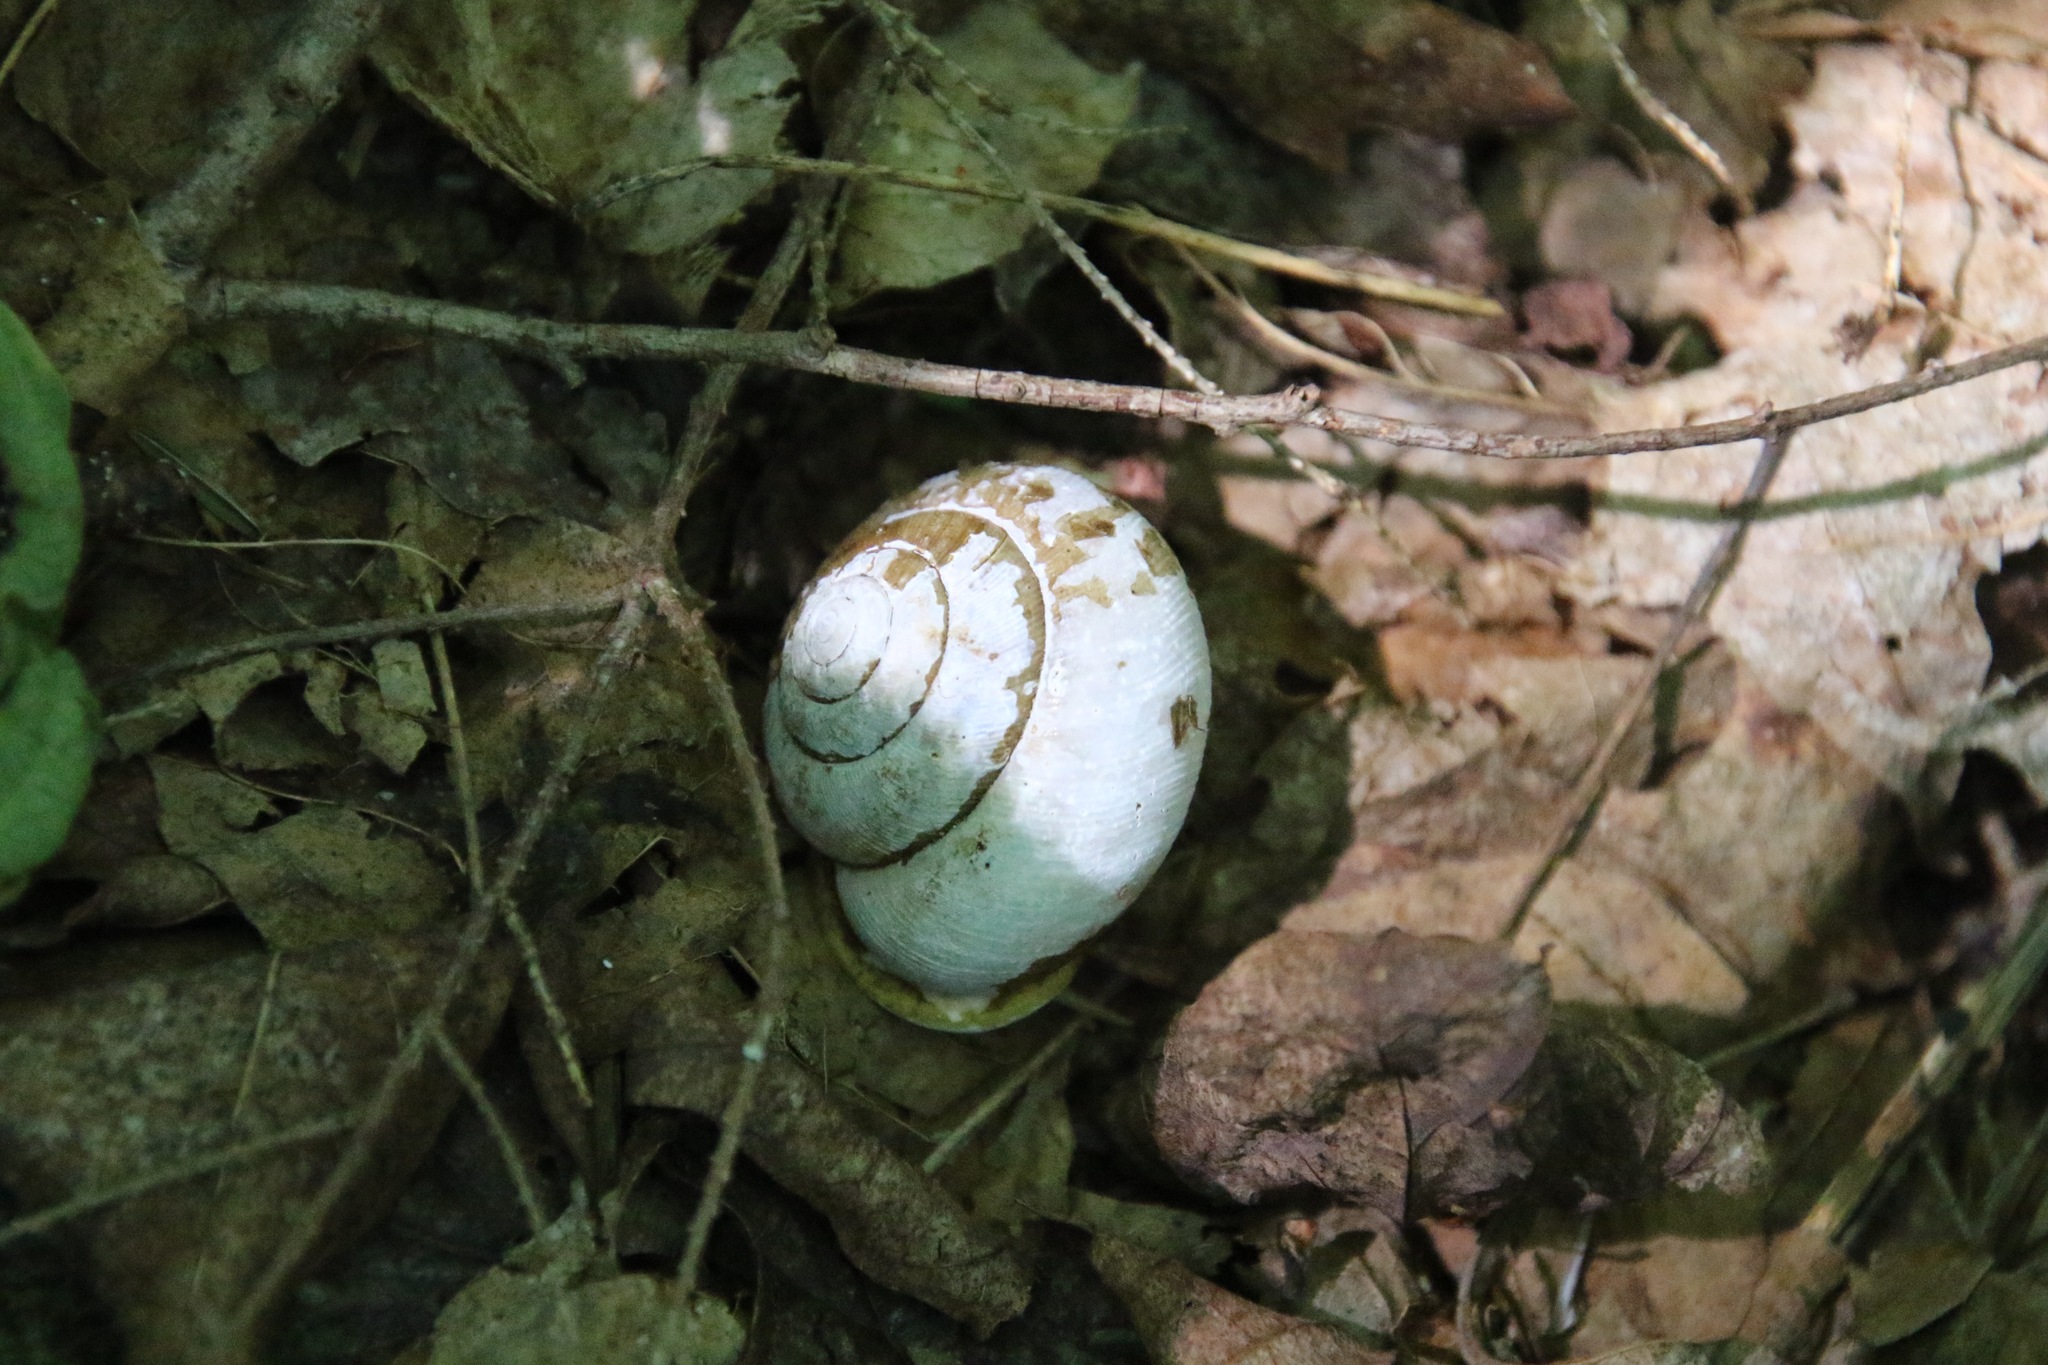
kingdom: Animalia
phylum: Mollusca
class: Gastropoda
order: Stylommatophora
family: Polygyridae
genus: Neohelix
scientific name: Neohelix albolabris
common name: Eastern whitelip
